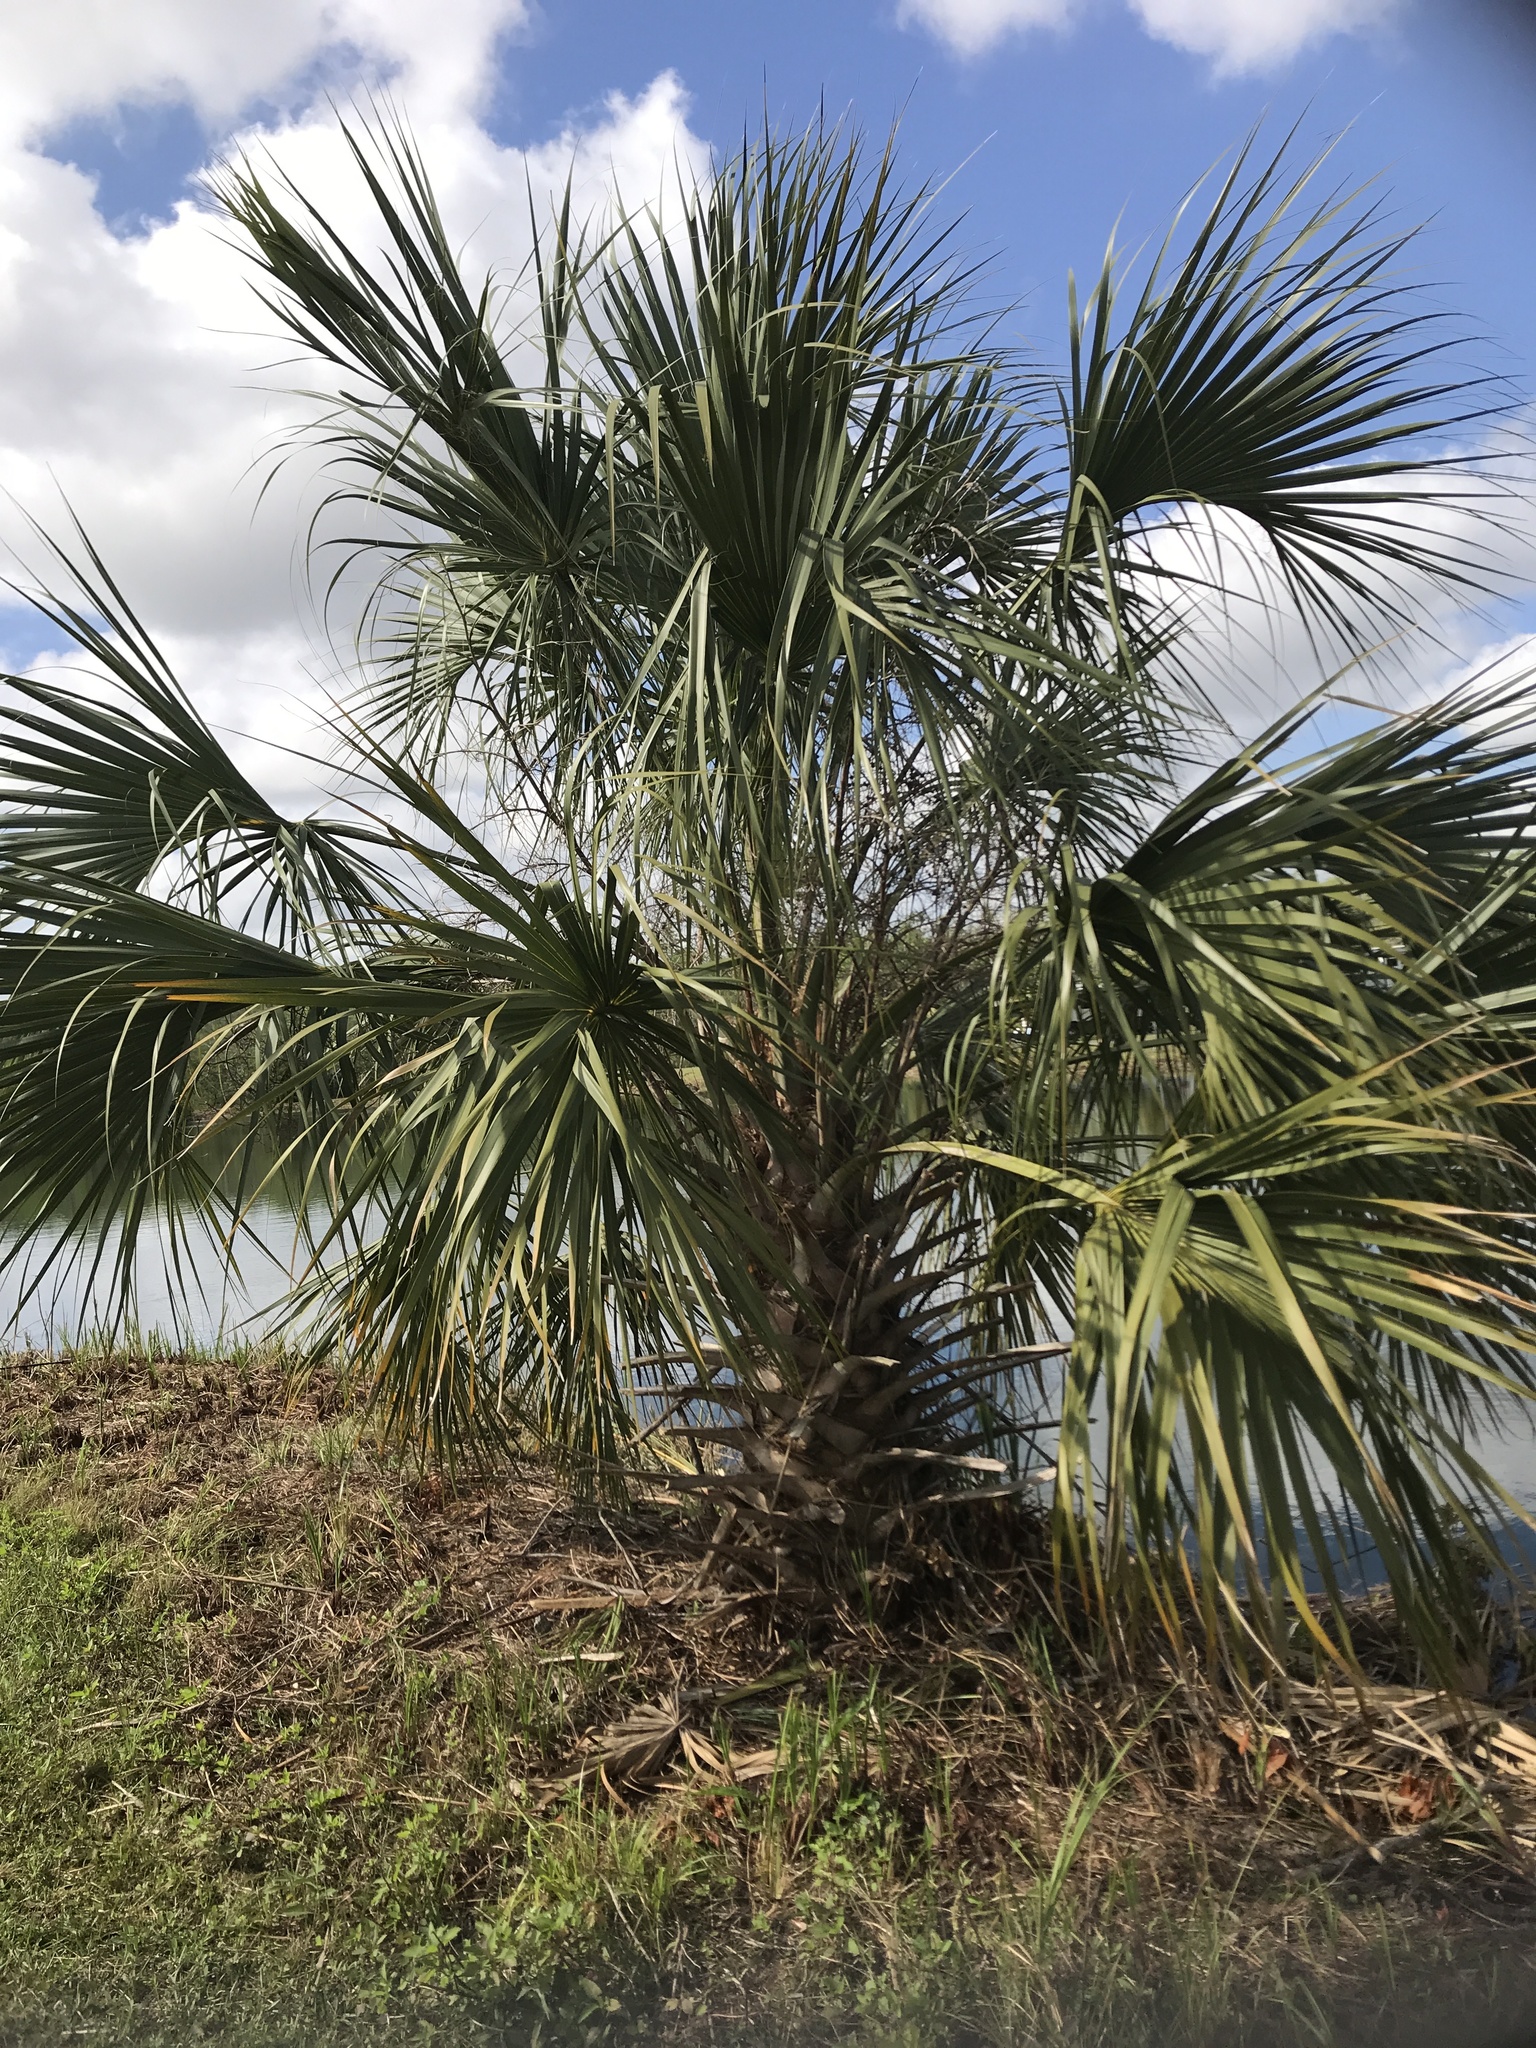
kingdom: Plantae
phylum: Tracheophyta
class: Liliopsida
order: Arecales
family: Arecaceae
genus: Sabal
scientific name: Sabal palmetto
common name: Blue palmetto
